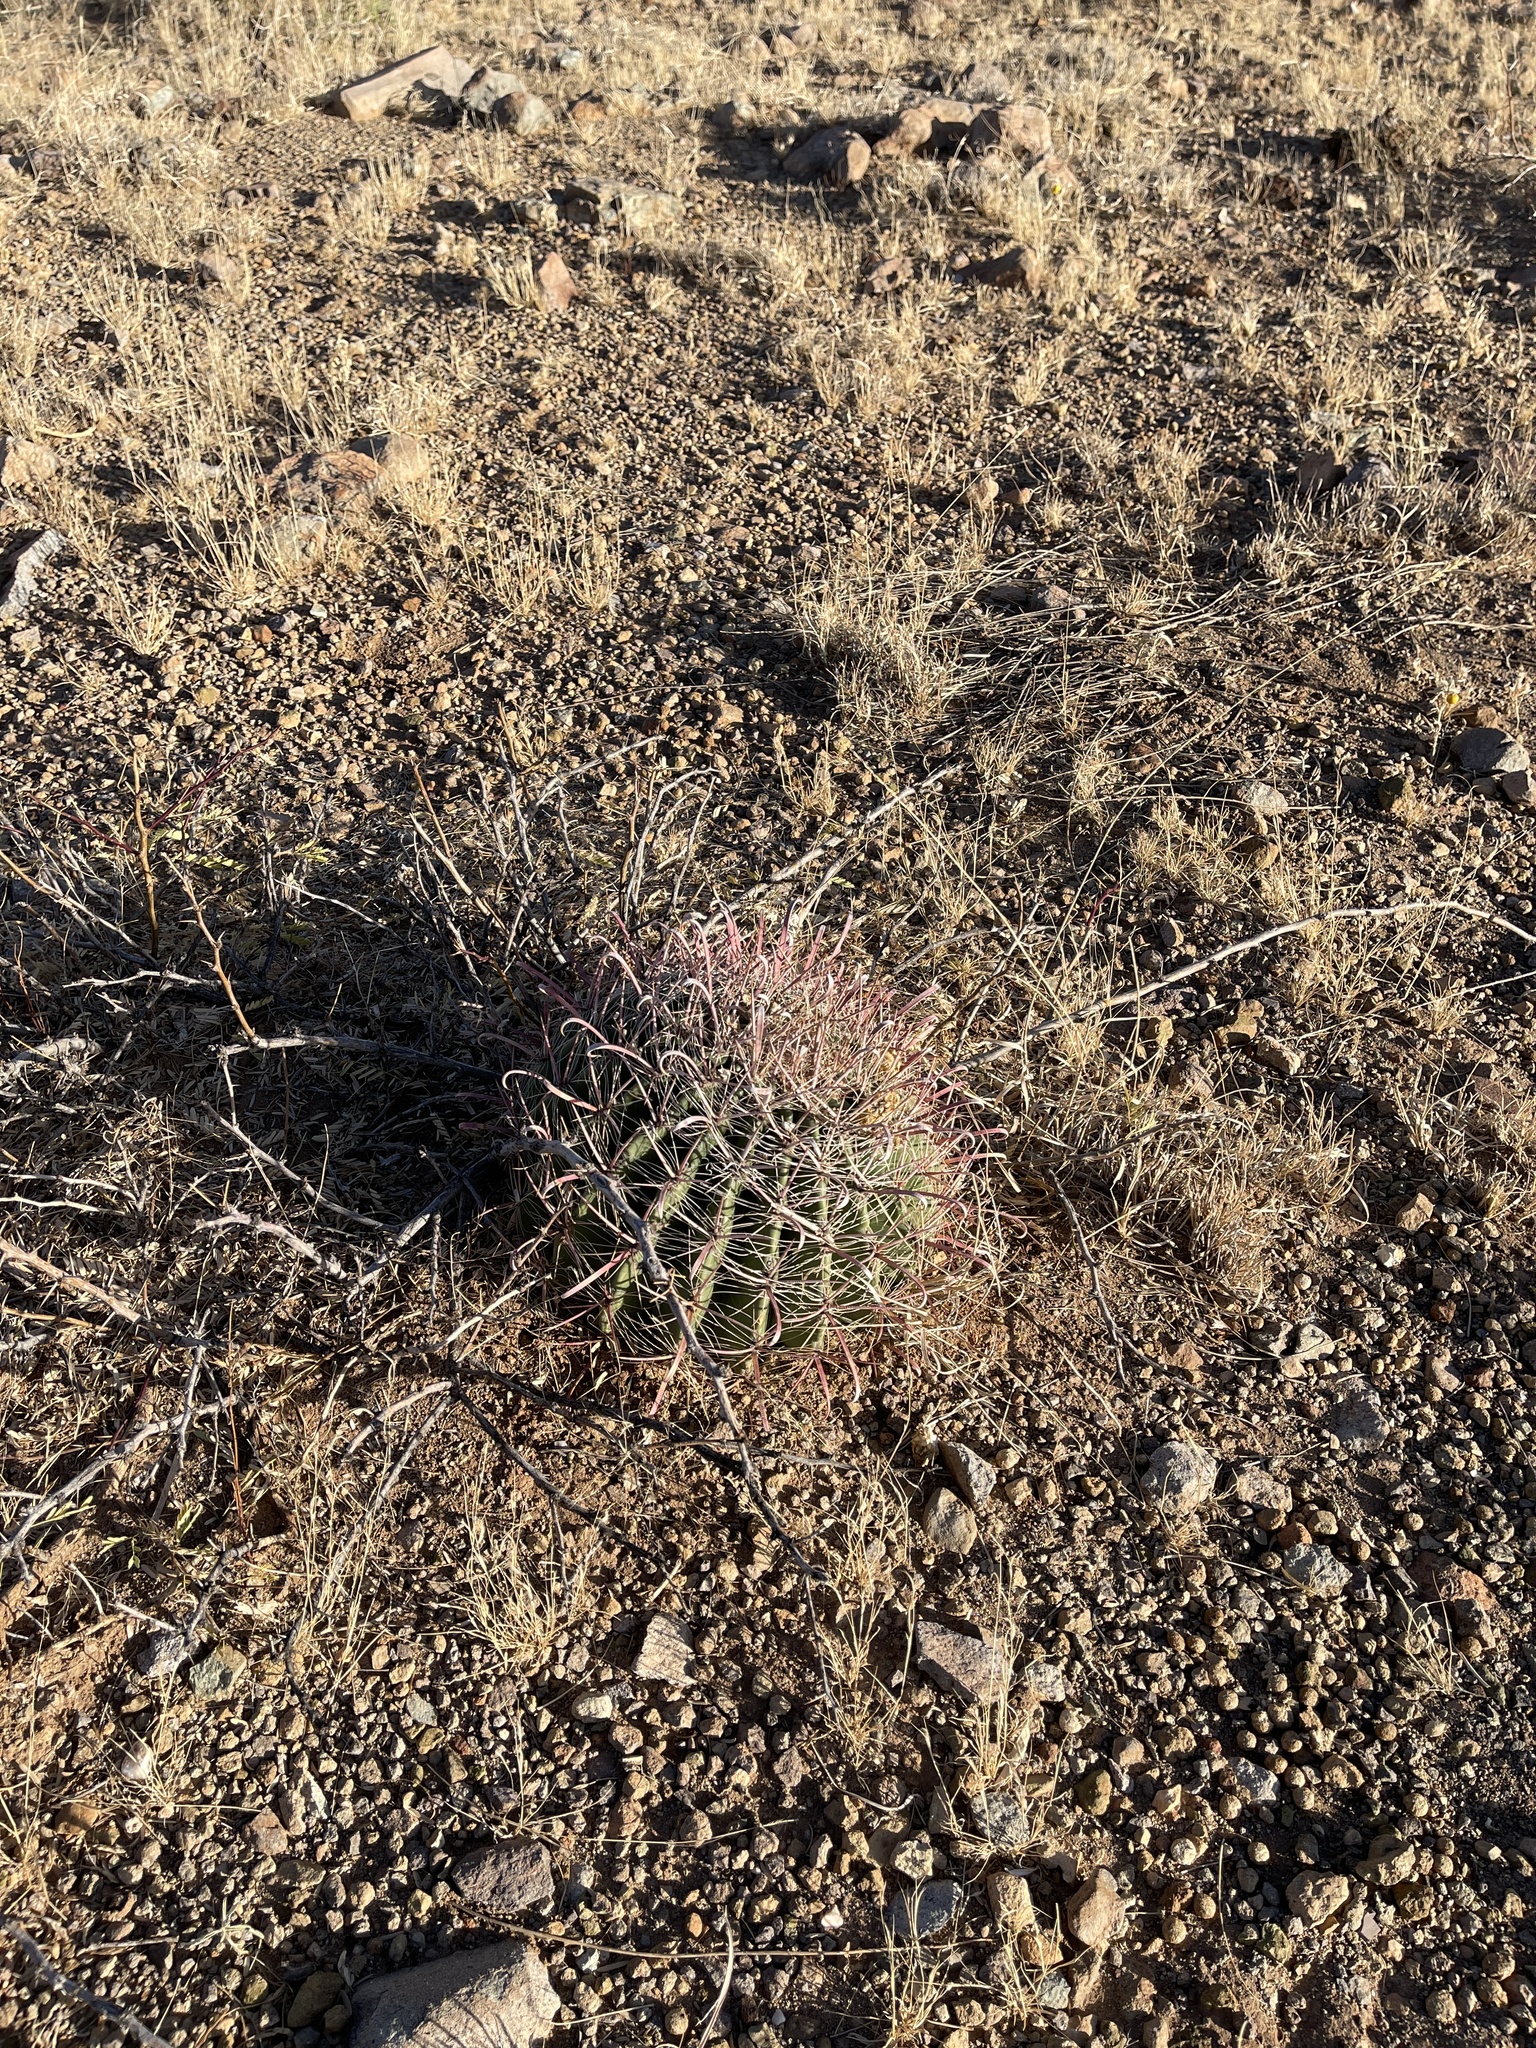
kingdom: Plantae
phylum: Tracheophyta
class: Magnoliopsida
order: Caryophyllales
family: Cactaceae
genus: Ferocactus
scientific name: Ferocactus wislizeni
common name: Candy barrel cactus
